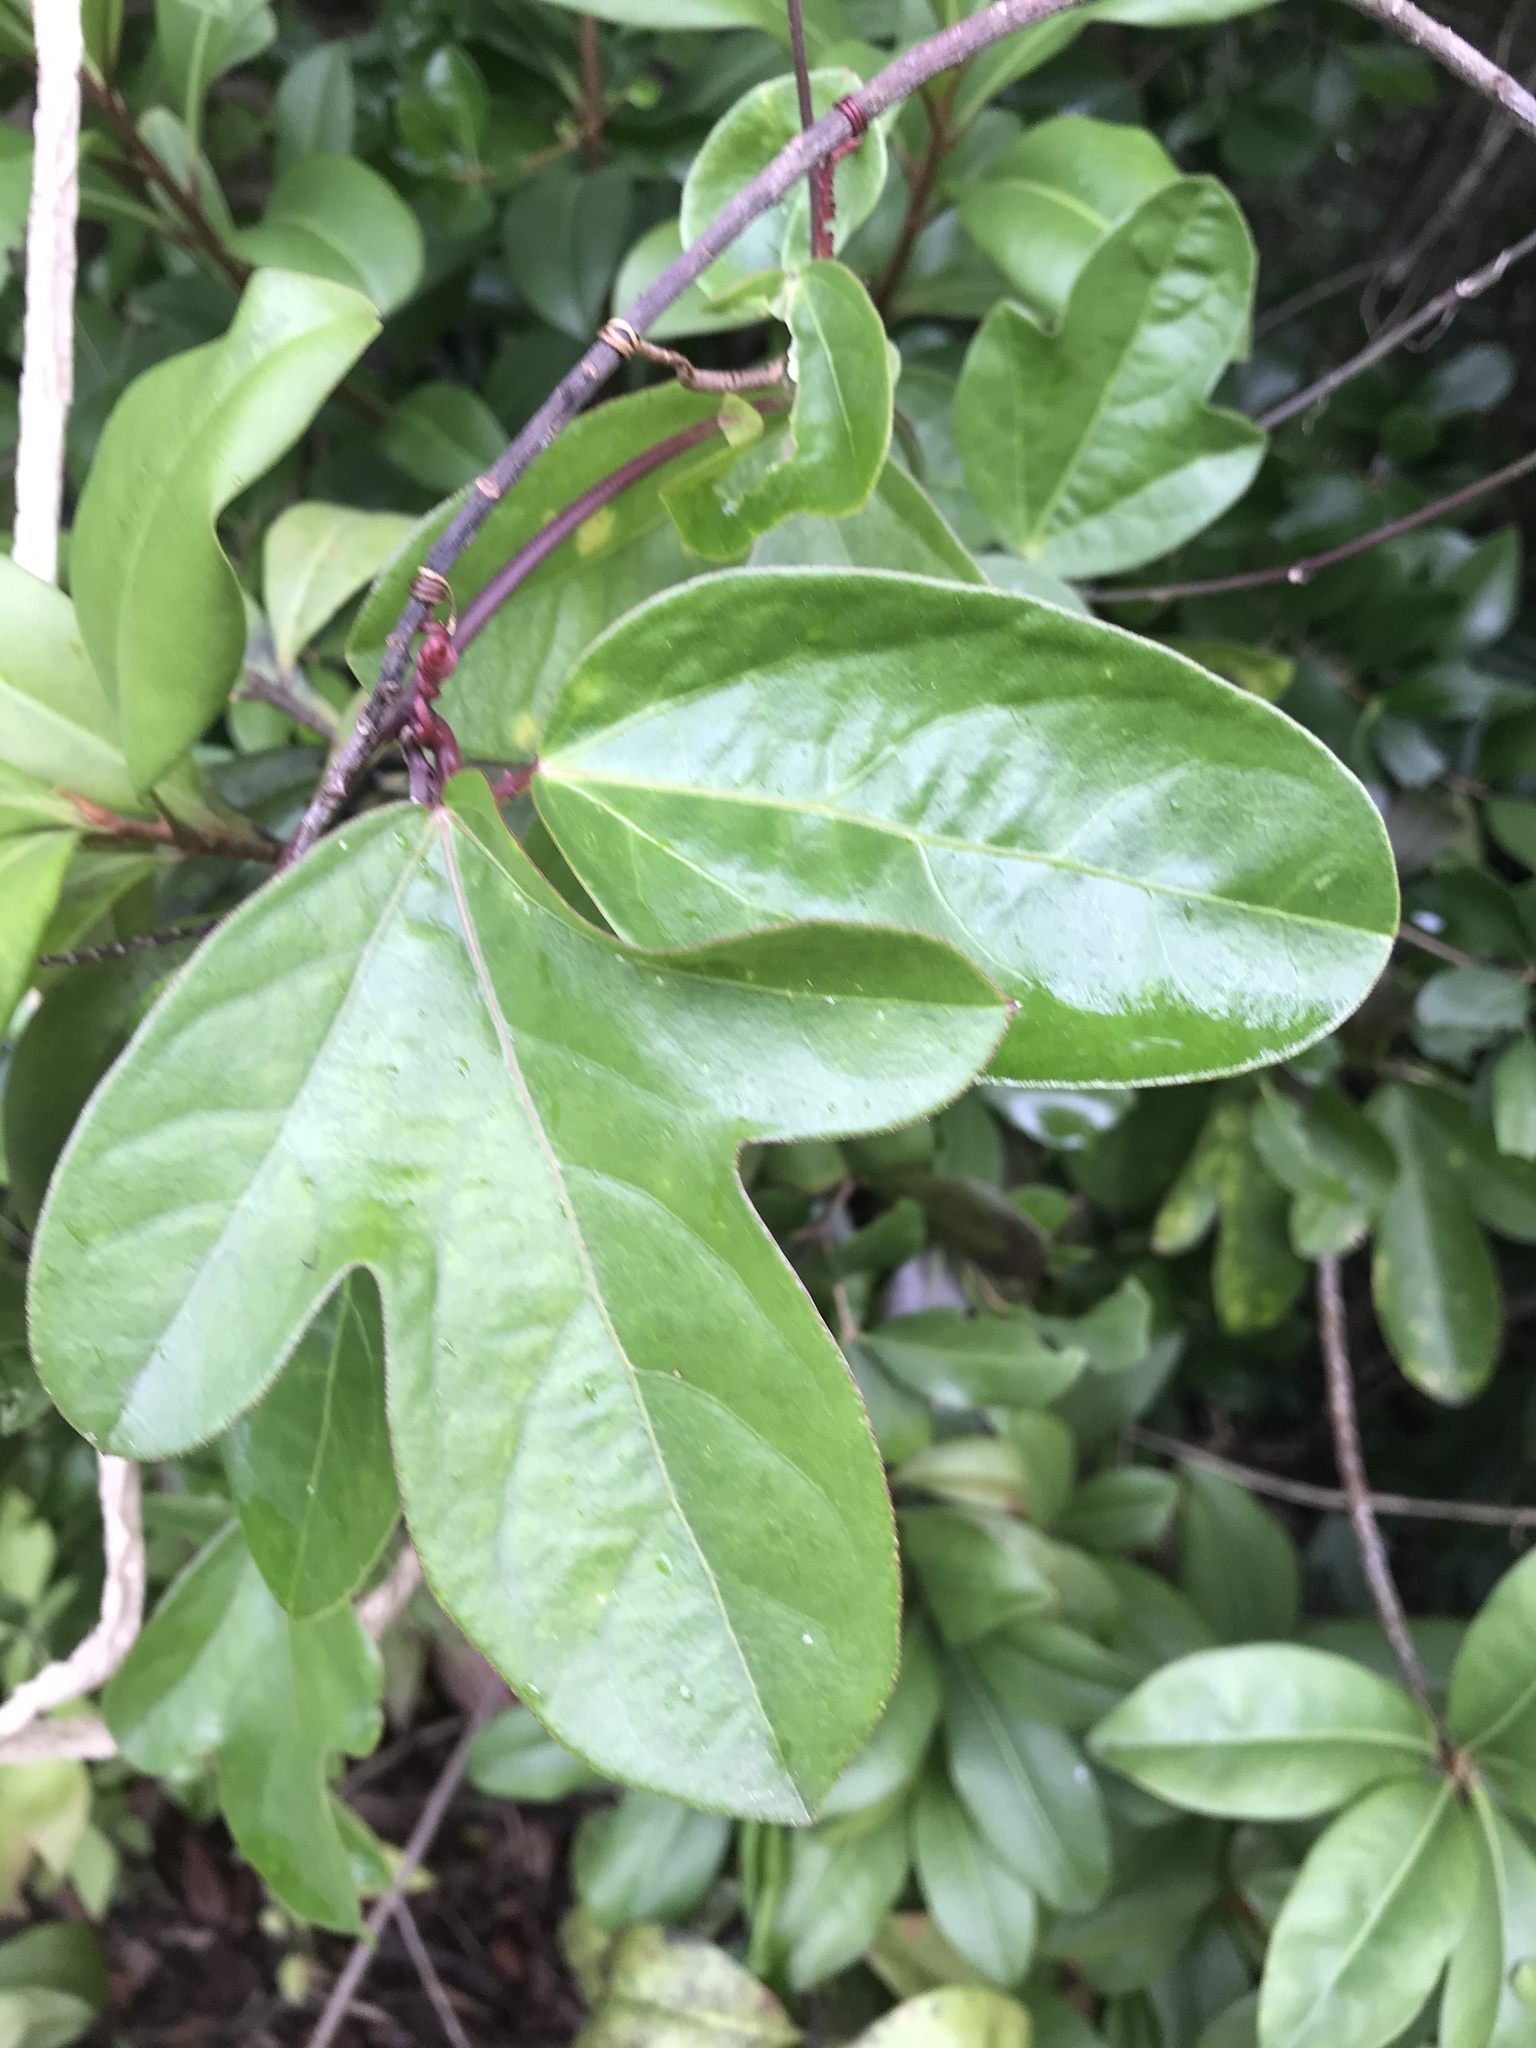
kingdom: Plantae
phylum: Tracheophyta
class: Magnoliopsida
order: Malpighiales
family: Passifloraceae
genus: Passiflora
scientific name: Passiflora pallida
